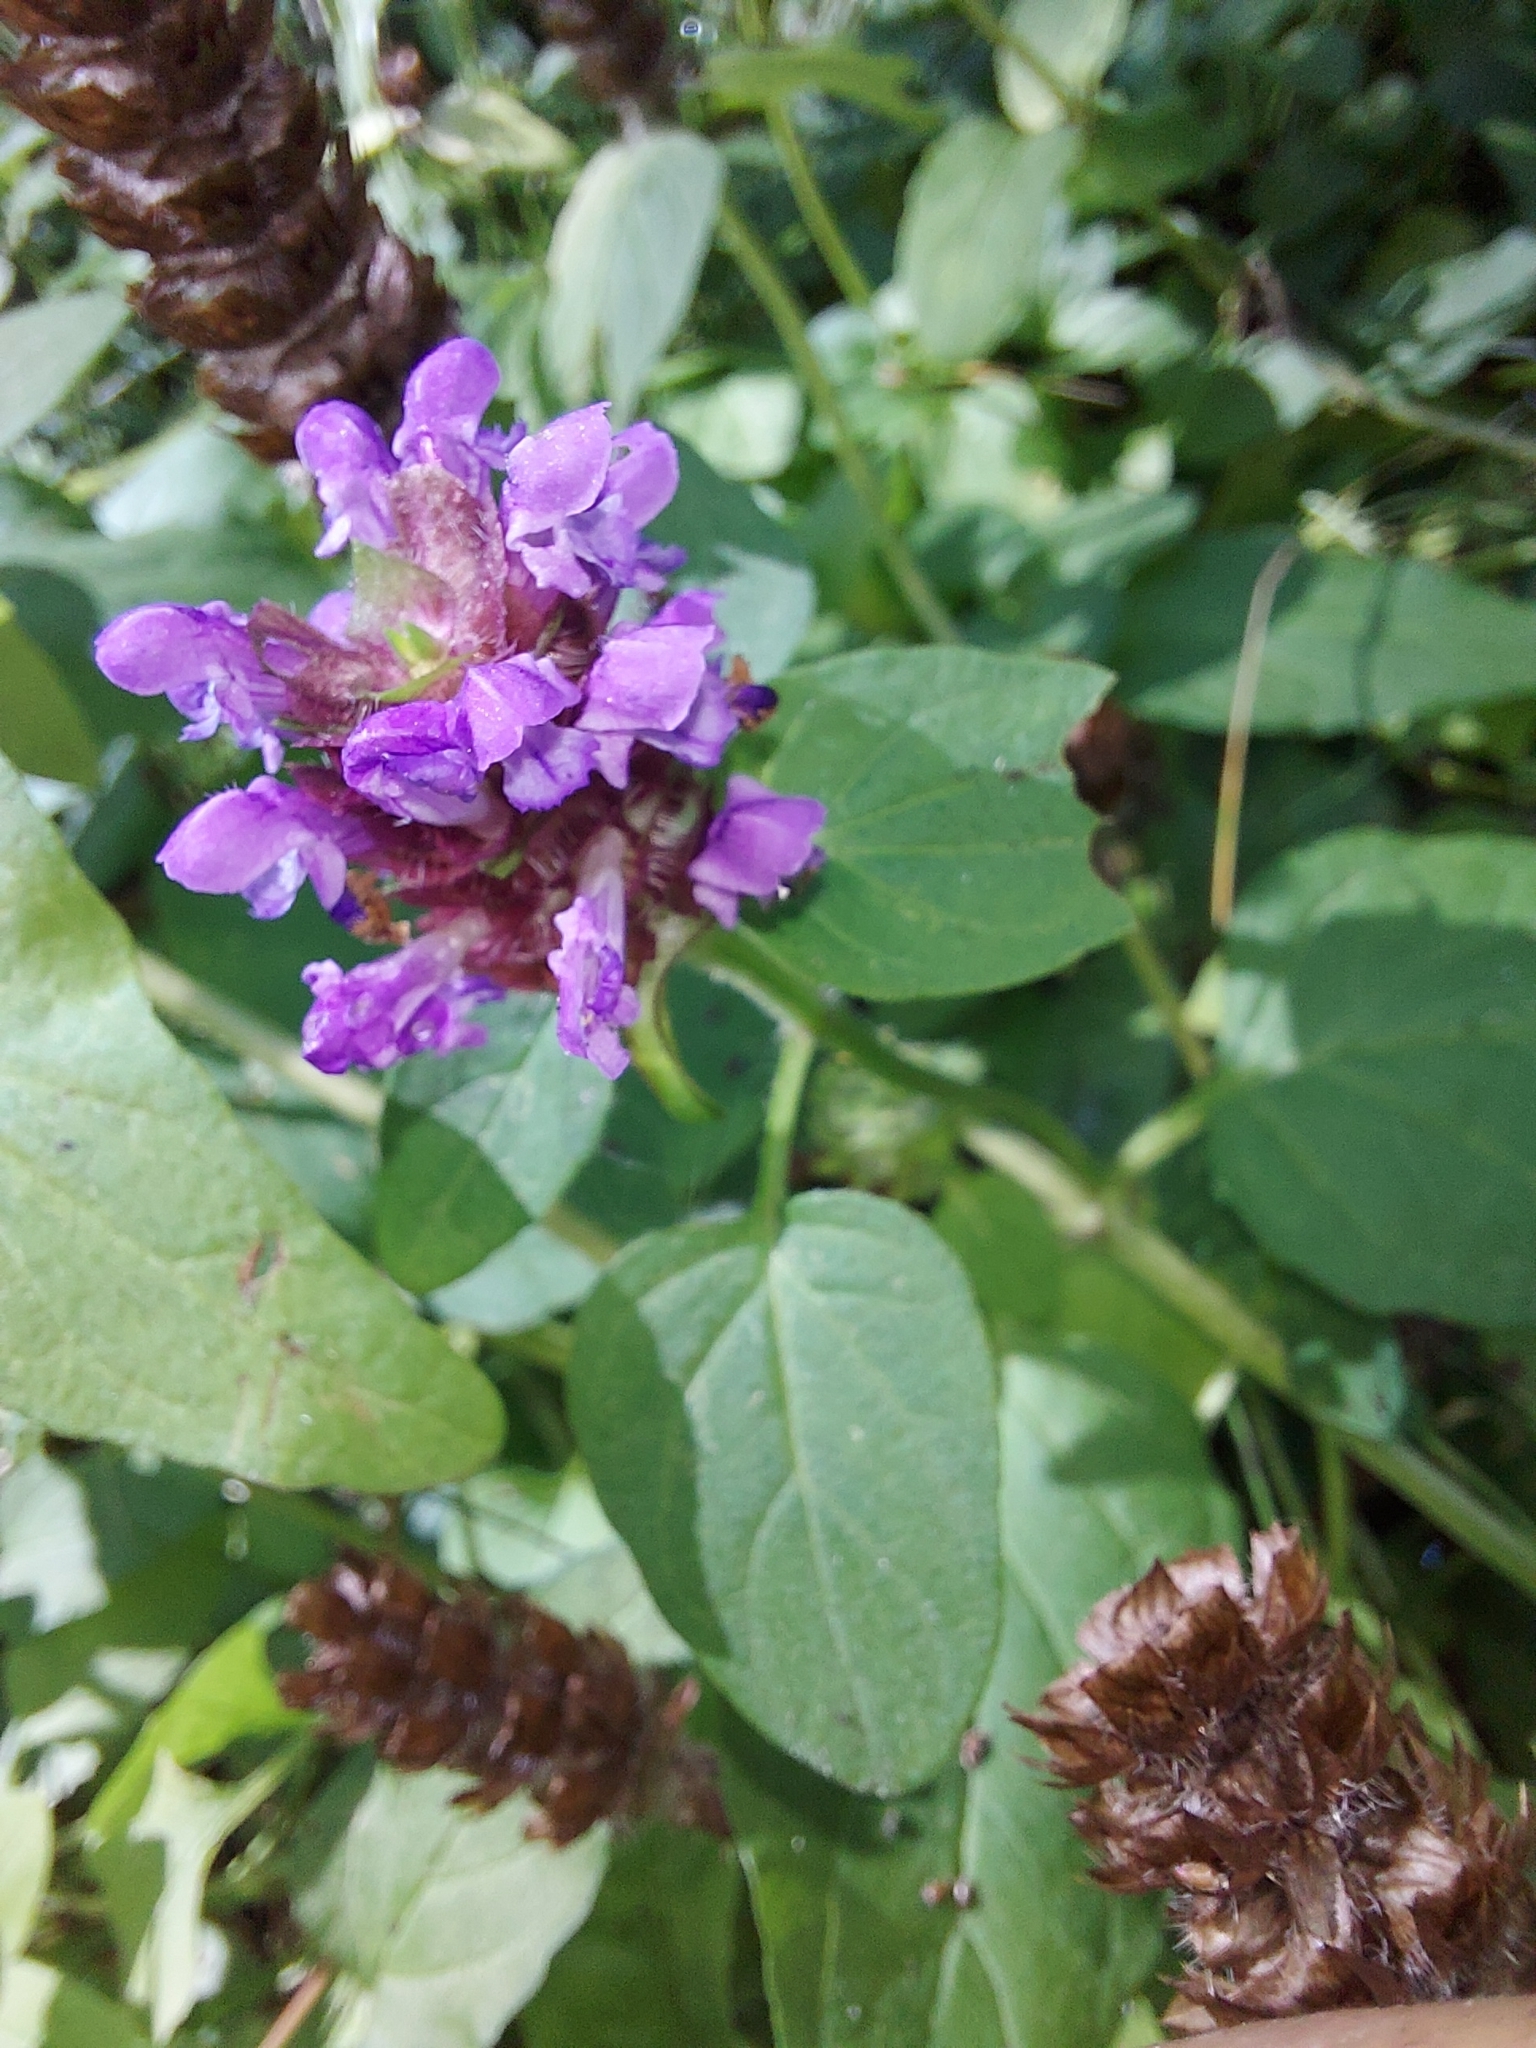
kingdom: Plantae
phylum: Tracheophyta
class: Magnoliopsida
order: Lamiales
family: Lamiaceae
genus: Prunella
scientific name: Prunella vulgaris
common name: Heal-all
